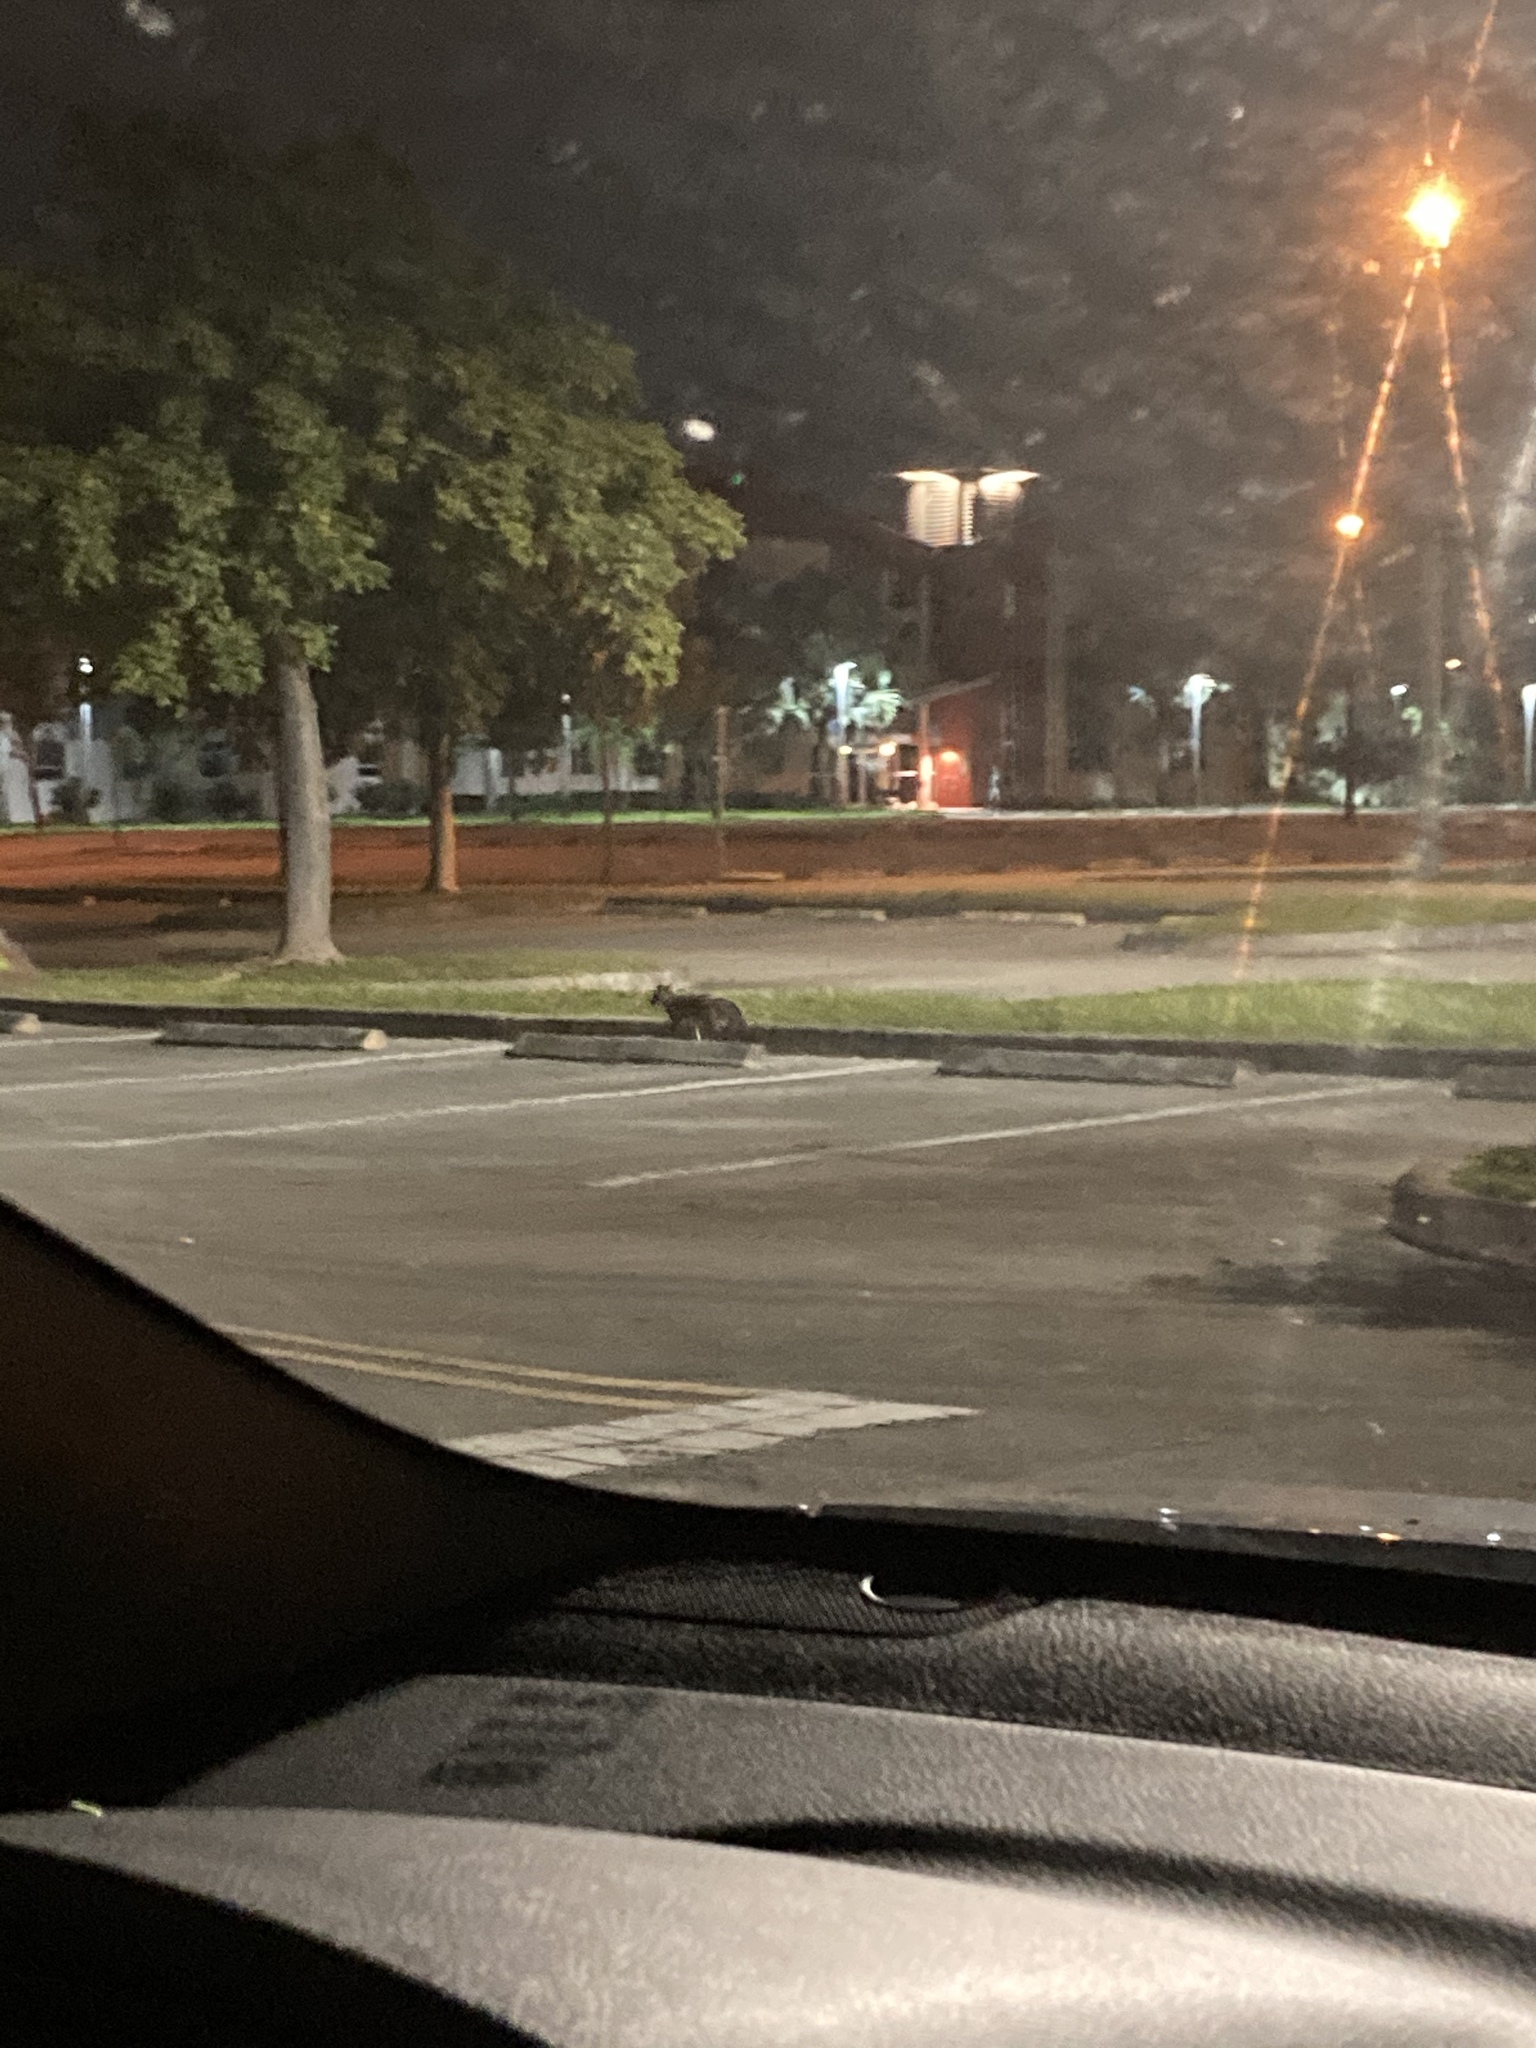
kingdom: Animalia
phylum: Chordata
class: Mammalia
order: Carnivora
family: Canidae
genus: Urocyon
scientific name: Urocyon cinereoargenteus
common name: Gray fox
